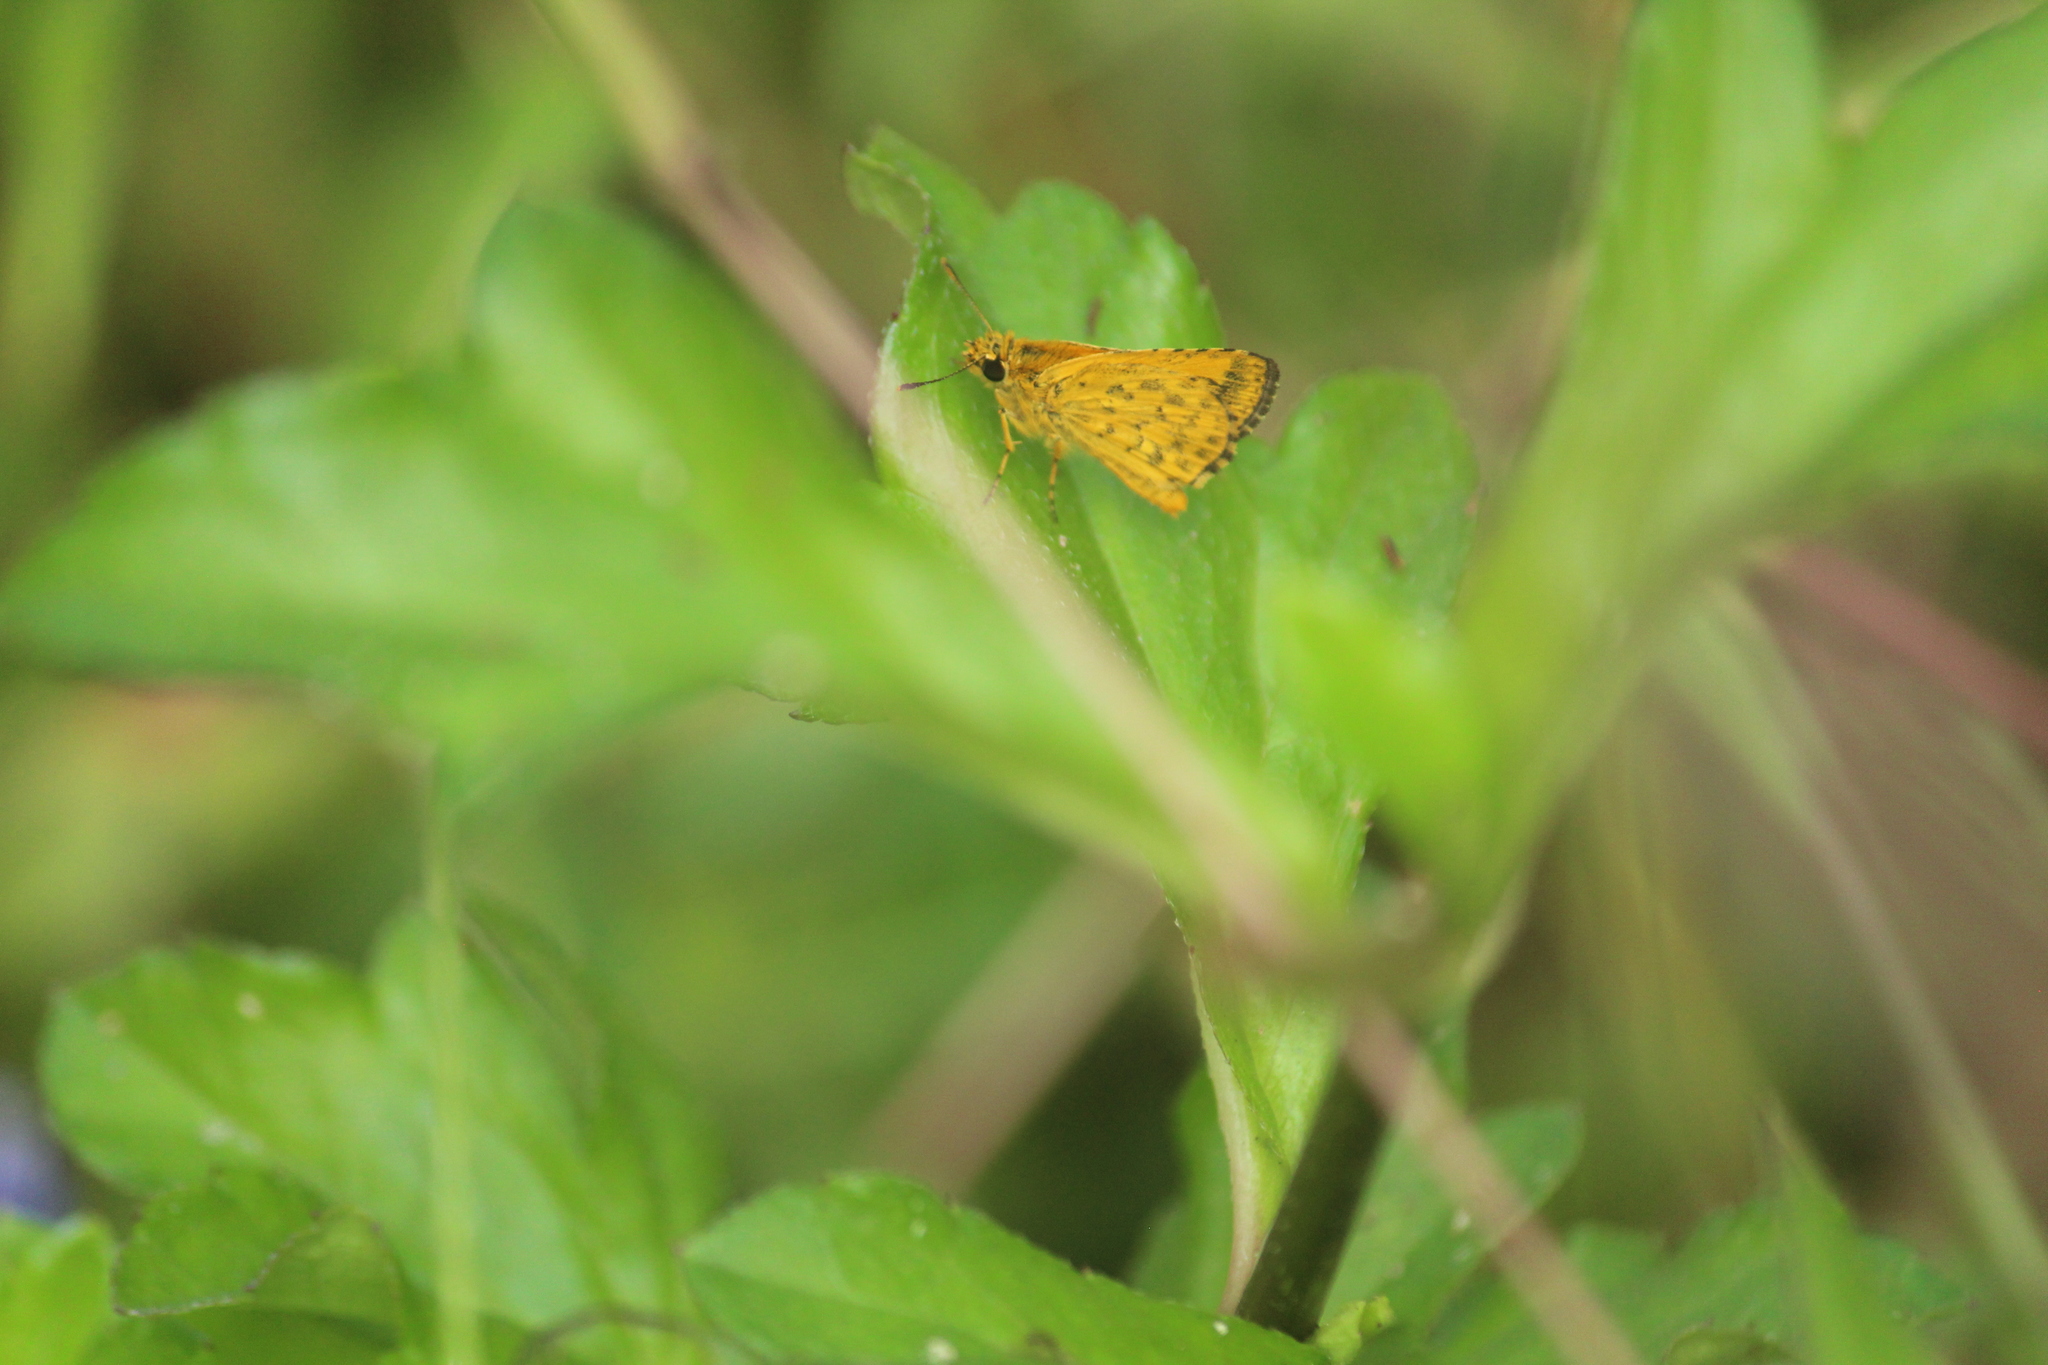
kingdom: Animalia
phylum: Arthropoda
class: Insecta
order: Lepidoptera
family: Hesperiidae
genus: Ampittia
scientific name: Ampittia dioscorides
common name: Common bush hopper
